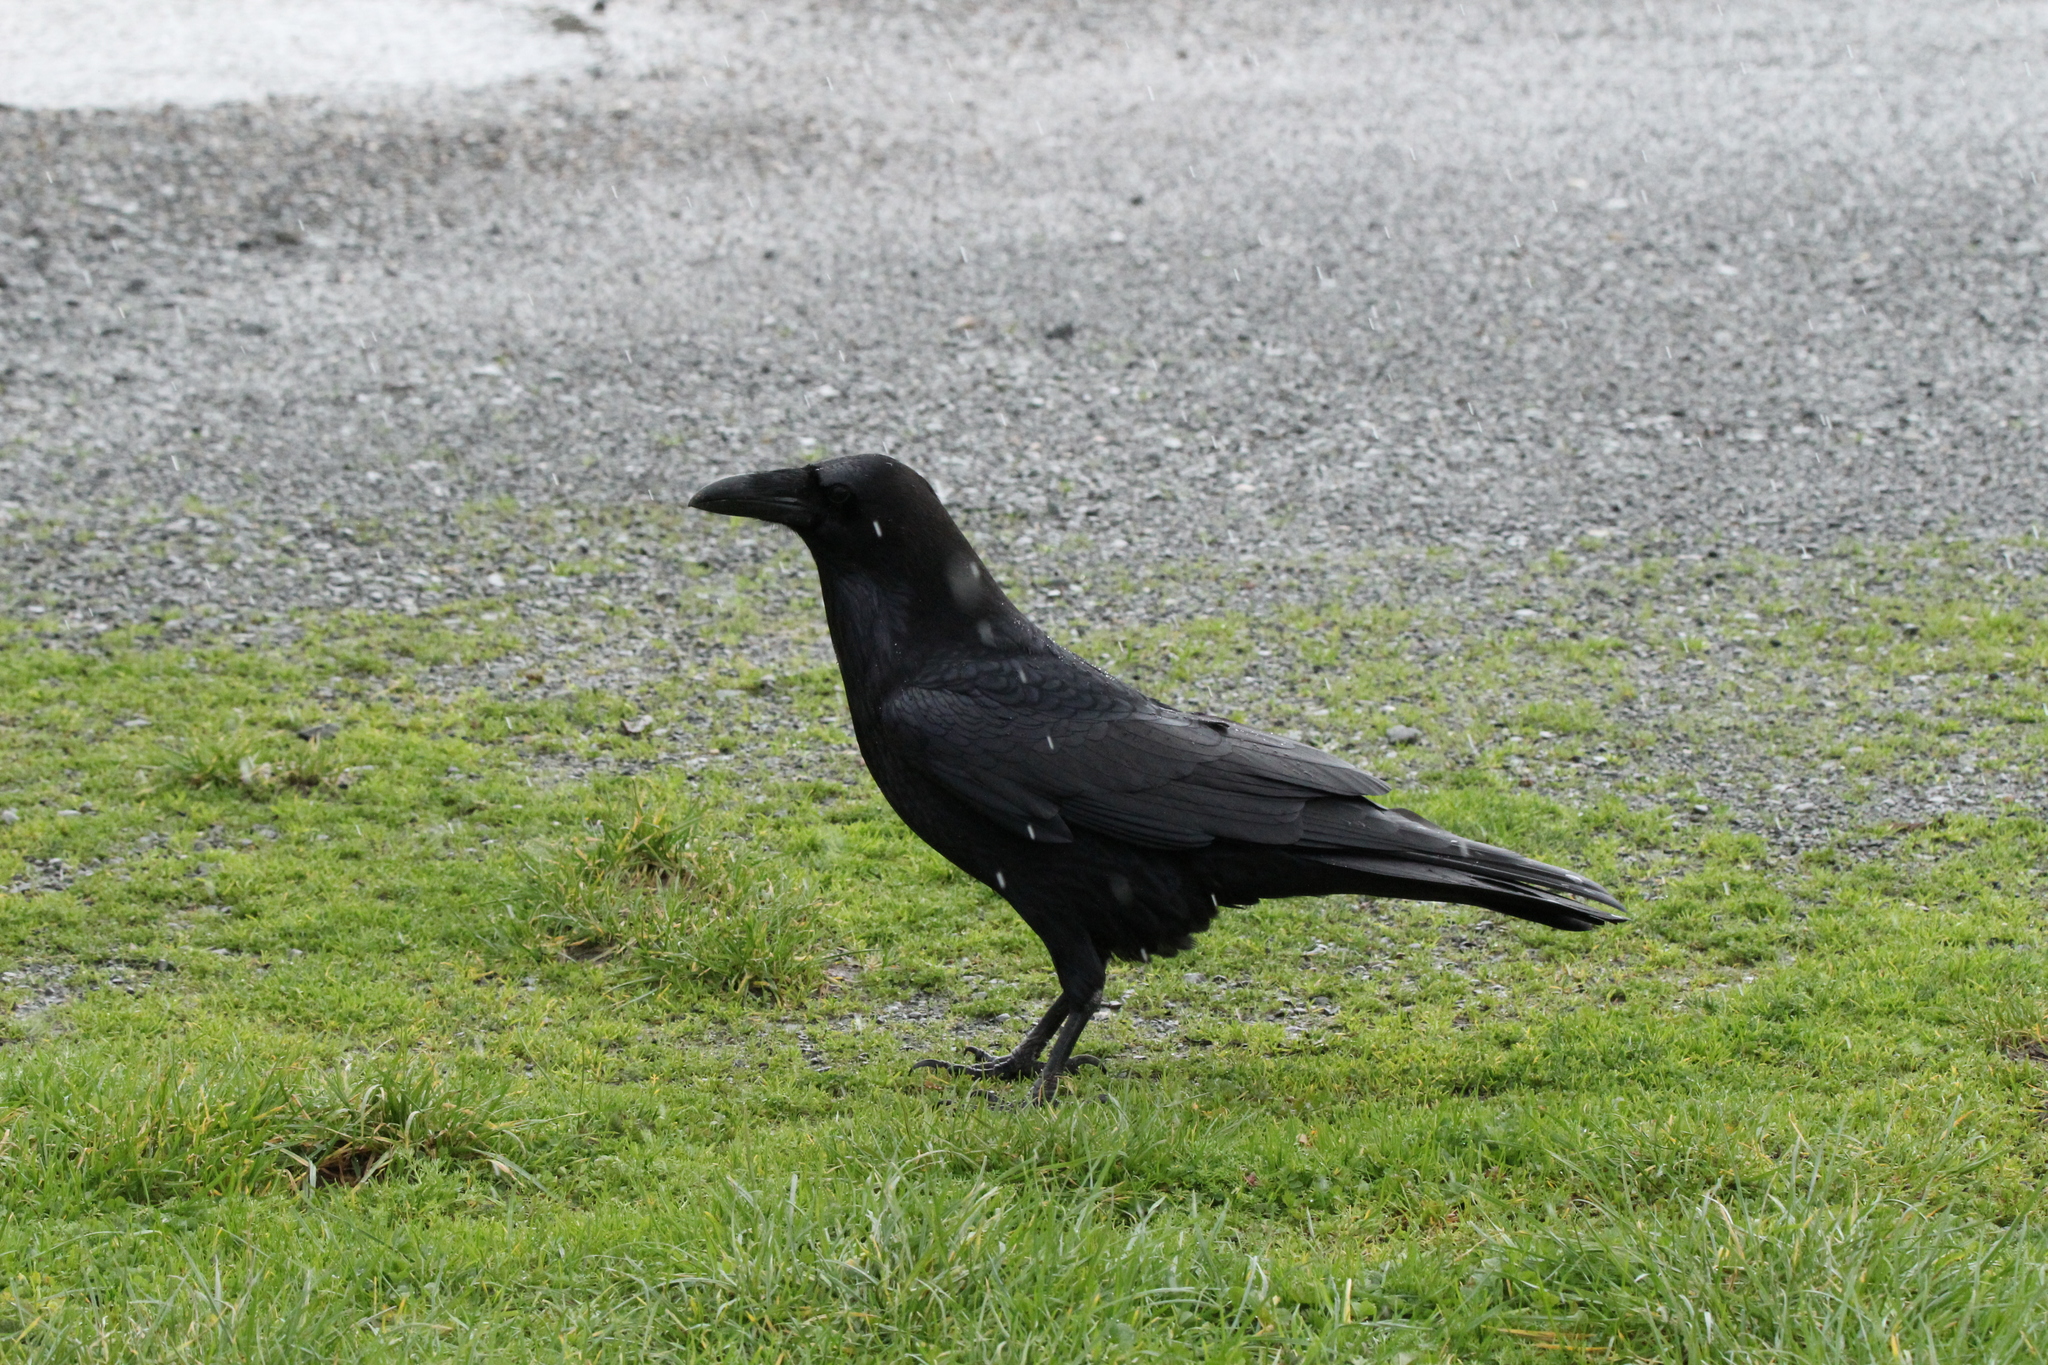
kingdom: Animalia
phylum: Chordata
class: Aves
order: Passeriformes
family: Corvidae
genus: Corvus
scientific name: Corvus corax
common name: Common raven
